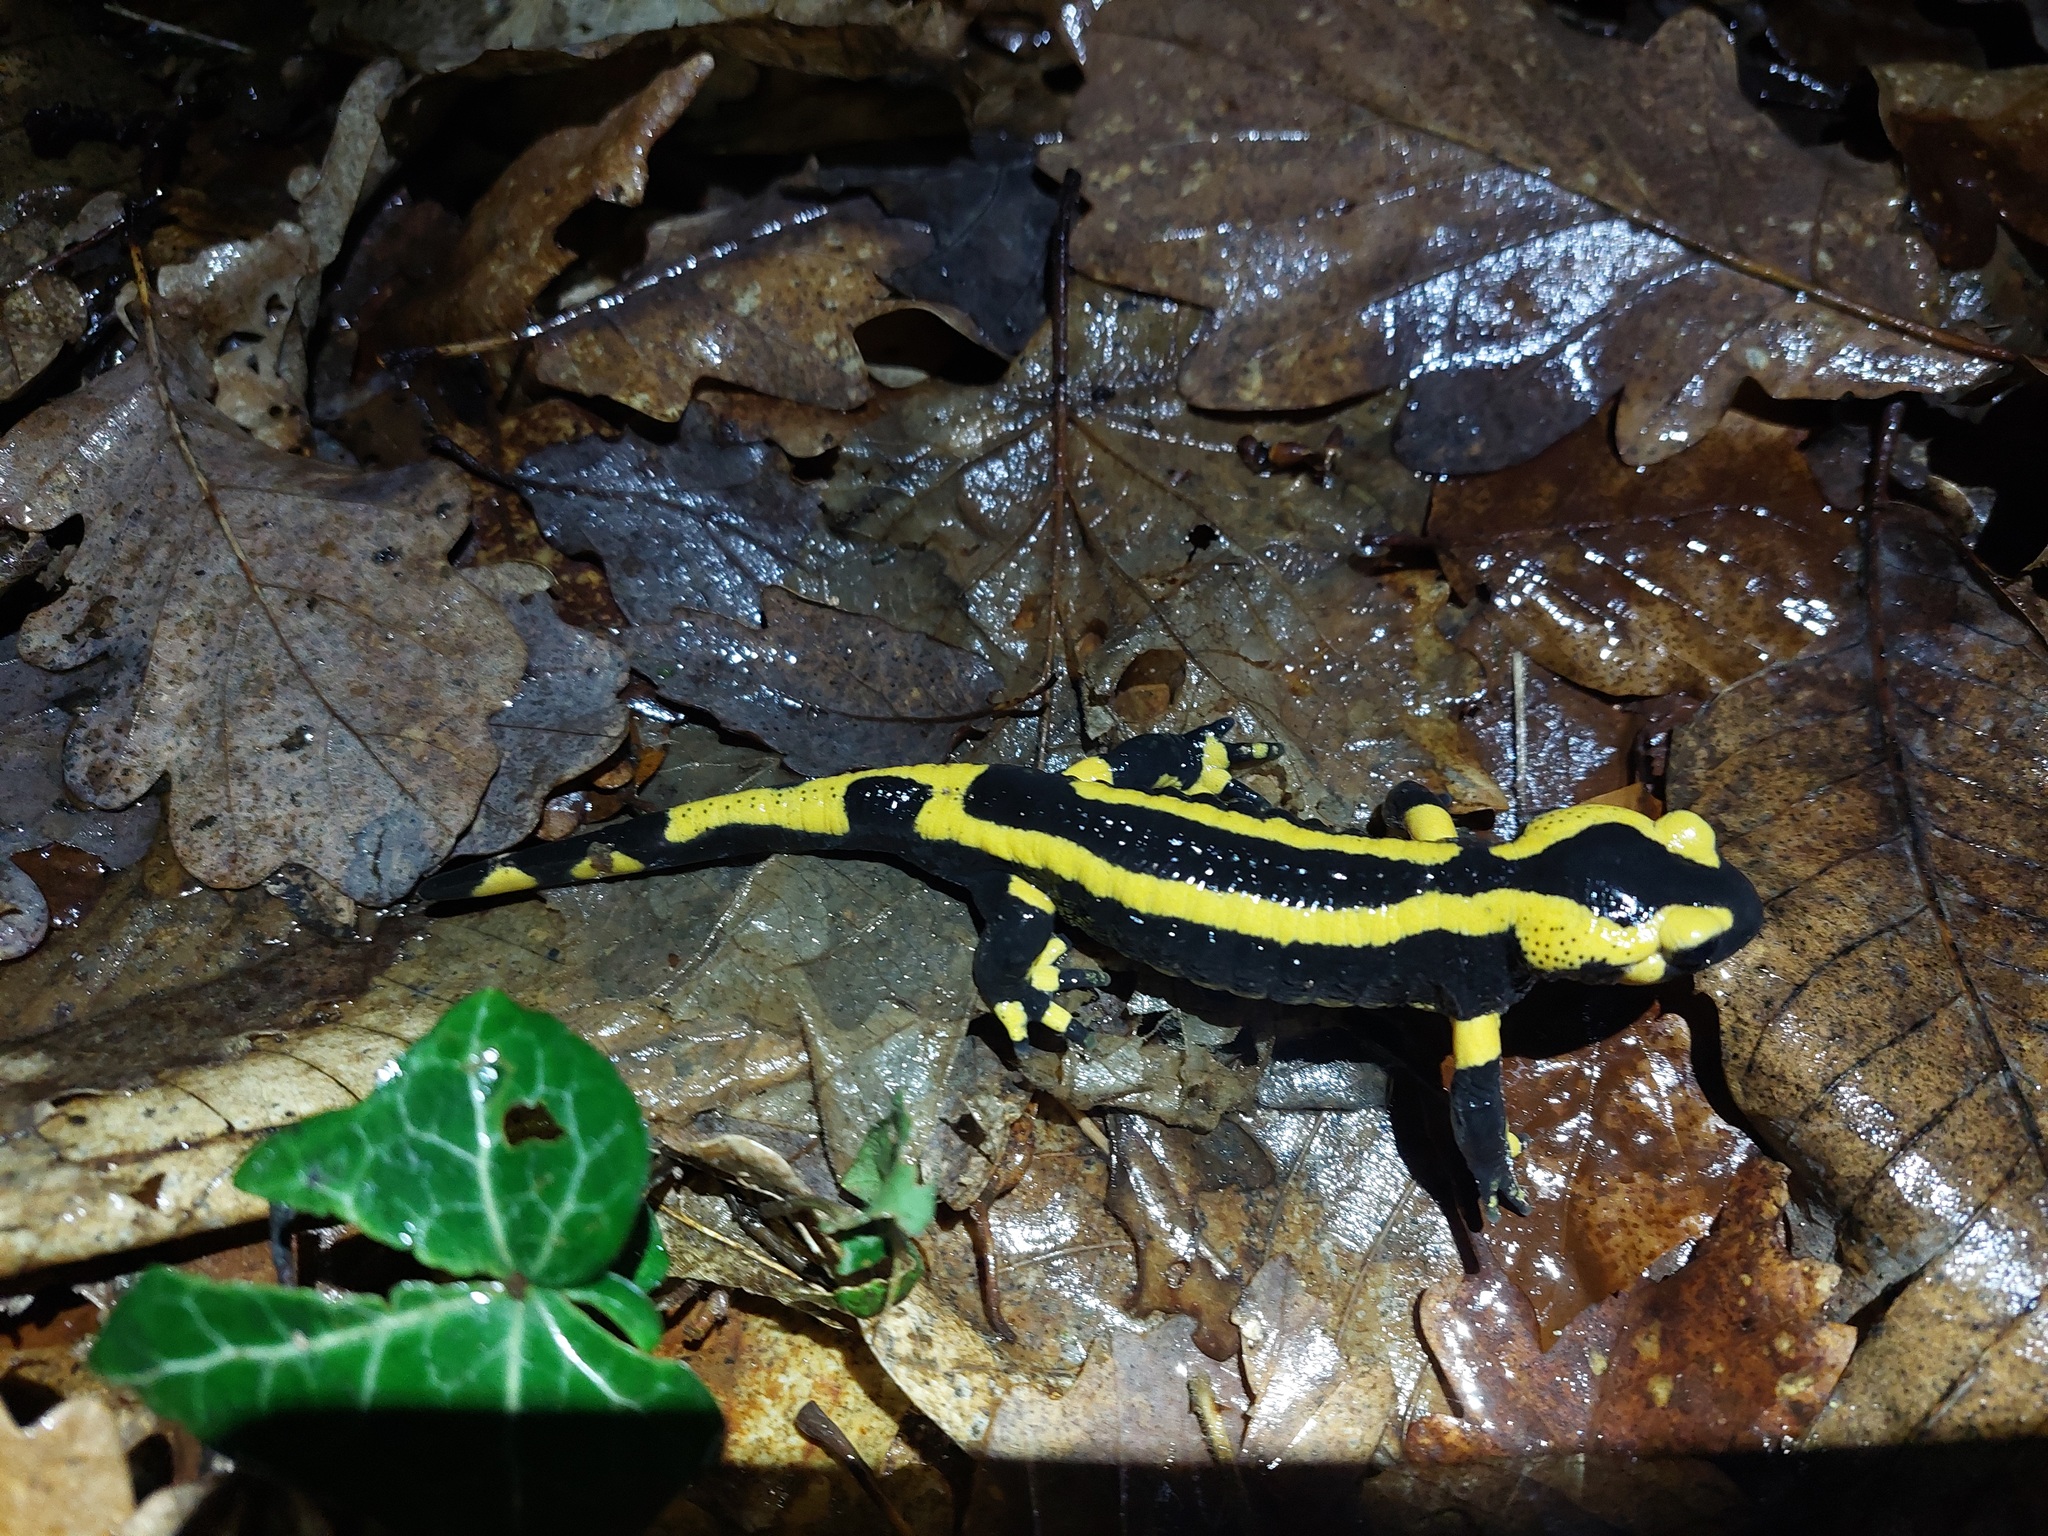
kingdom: Animalia
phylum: Chordata
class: Amphibia
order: Caudata
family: Salamandridae
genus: Salamandra
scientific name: Salamandra salamandra
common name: Fire salamander
